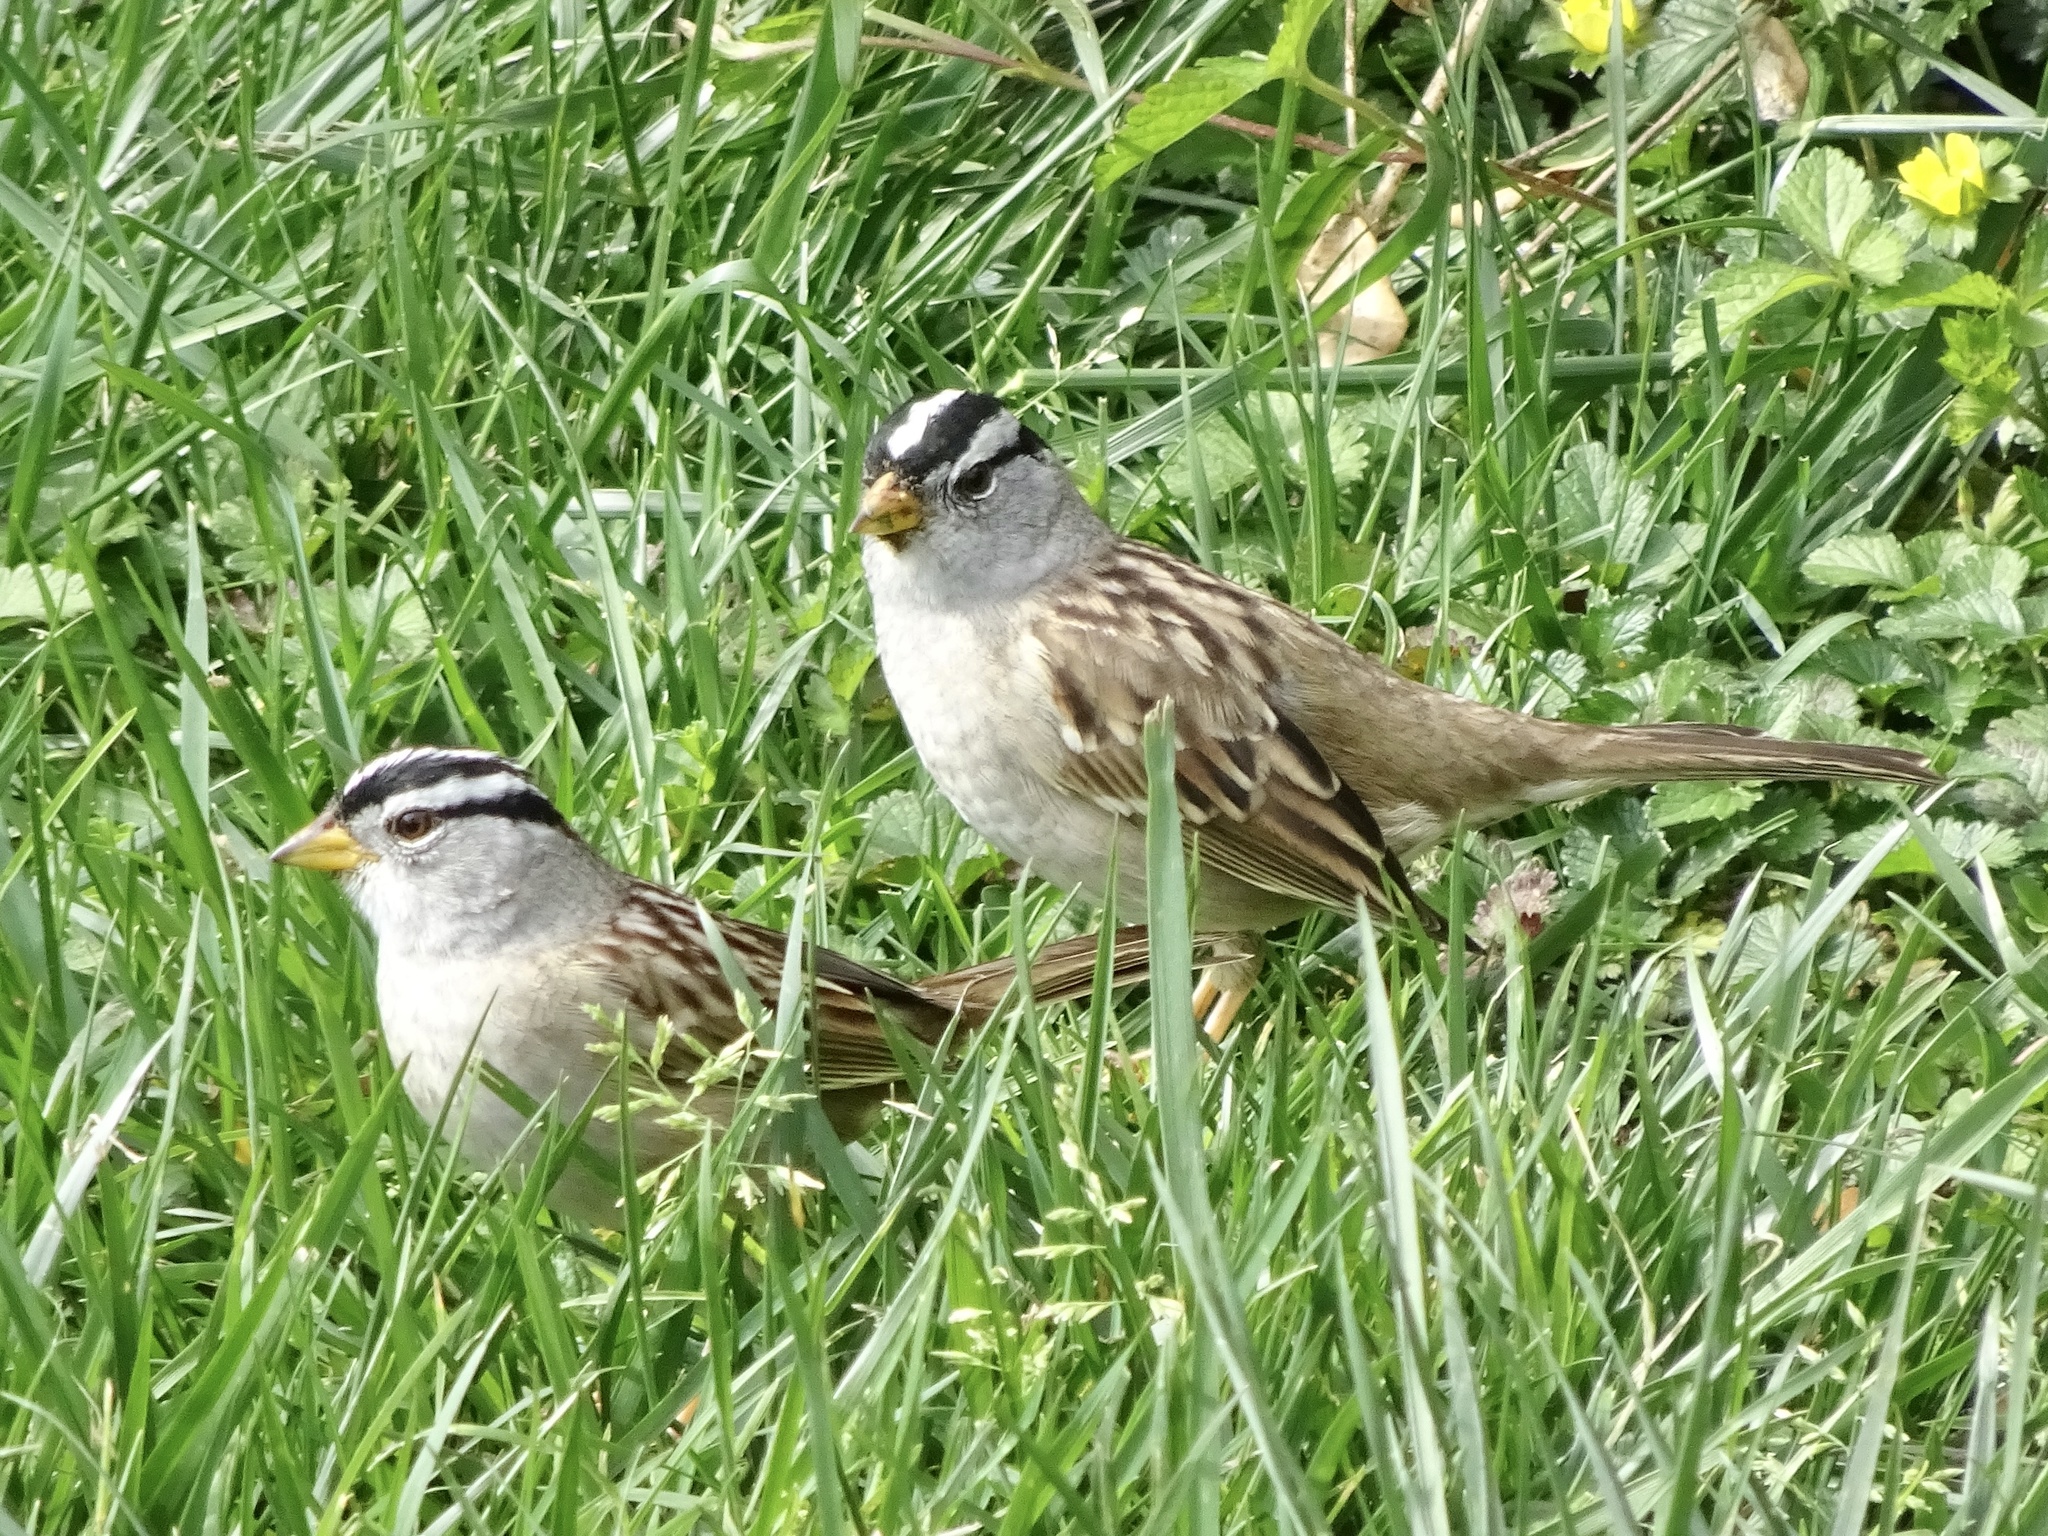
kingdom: Animalia
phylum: Chordata
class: Aves
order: Passeriformes
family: Passerellidae
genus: Zonotrichia
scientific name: Zonotrichia leucophrys
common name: White-crowned sparrow
